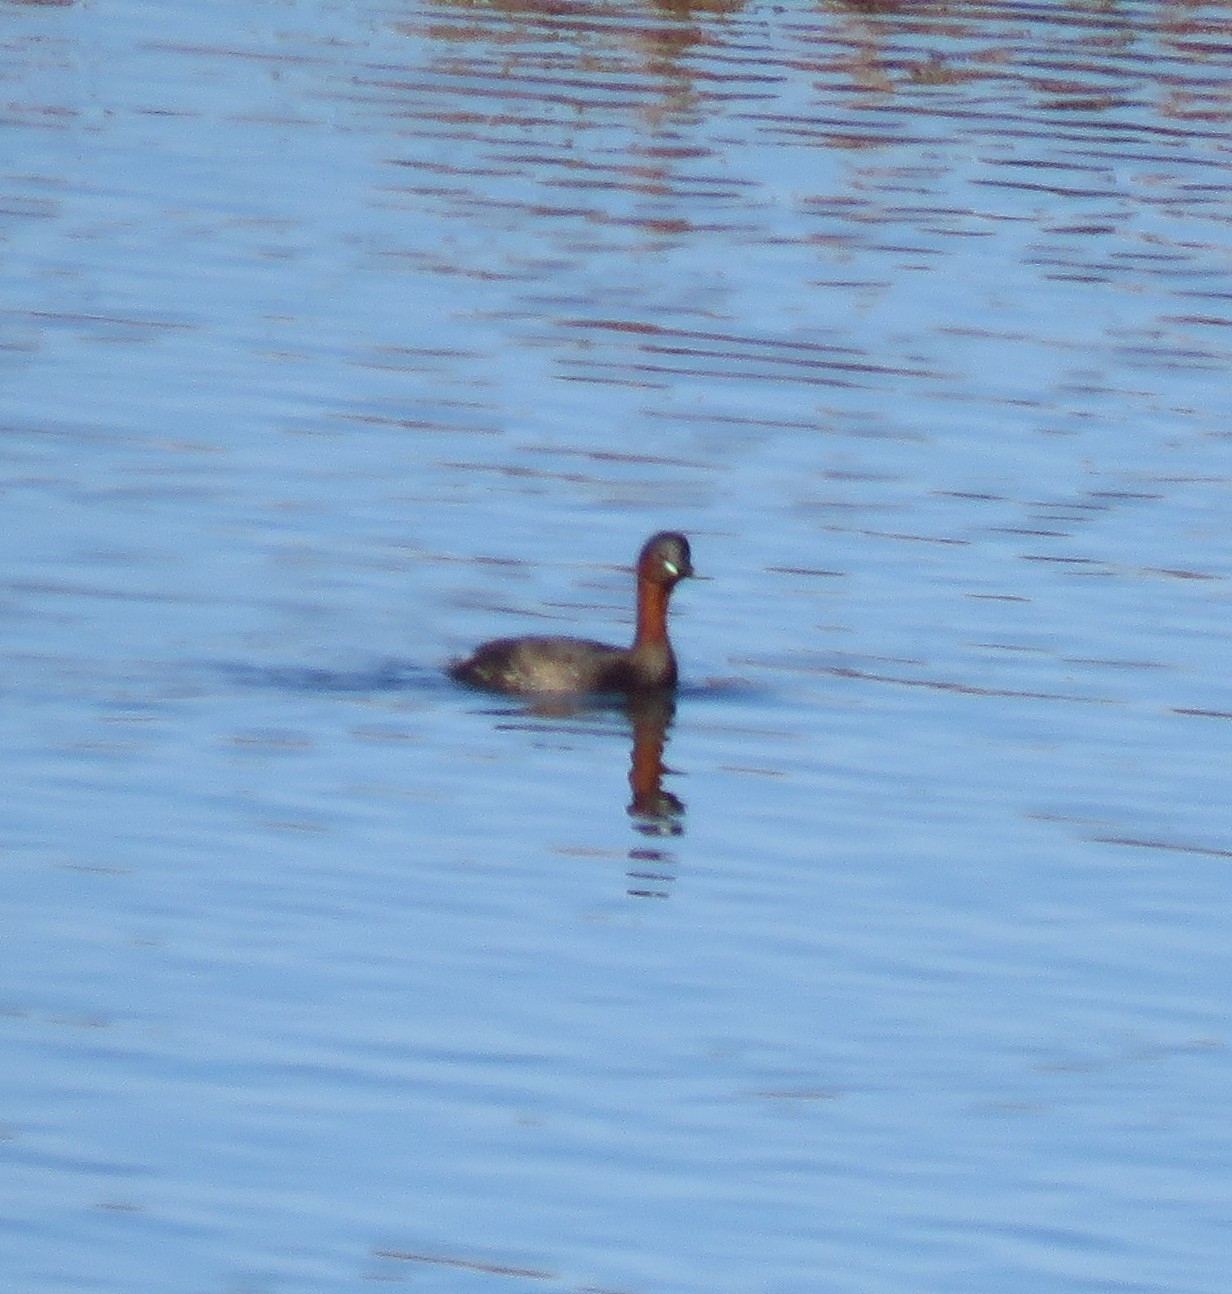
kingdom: Animalia
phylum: Chordata
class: Aves
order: Podicipediformes
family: Podicipedidae
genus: Tachybaptus
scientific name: Tachybaptus ruficollis
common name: Little grebe
